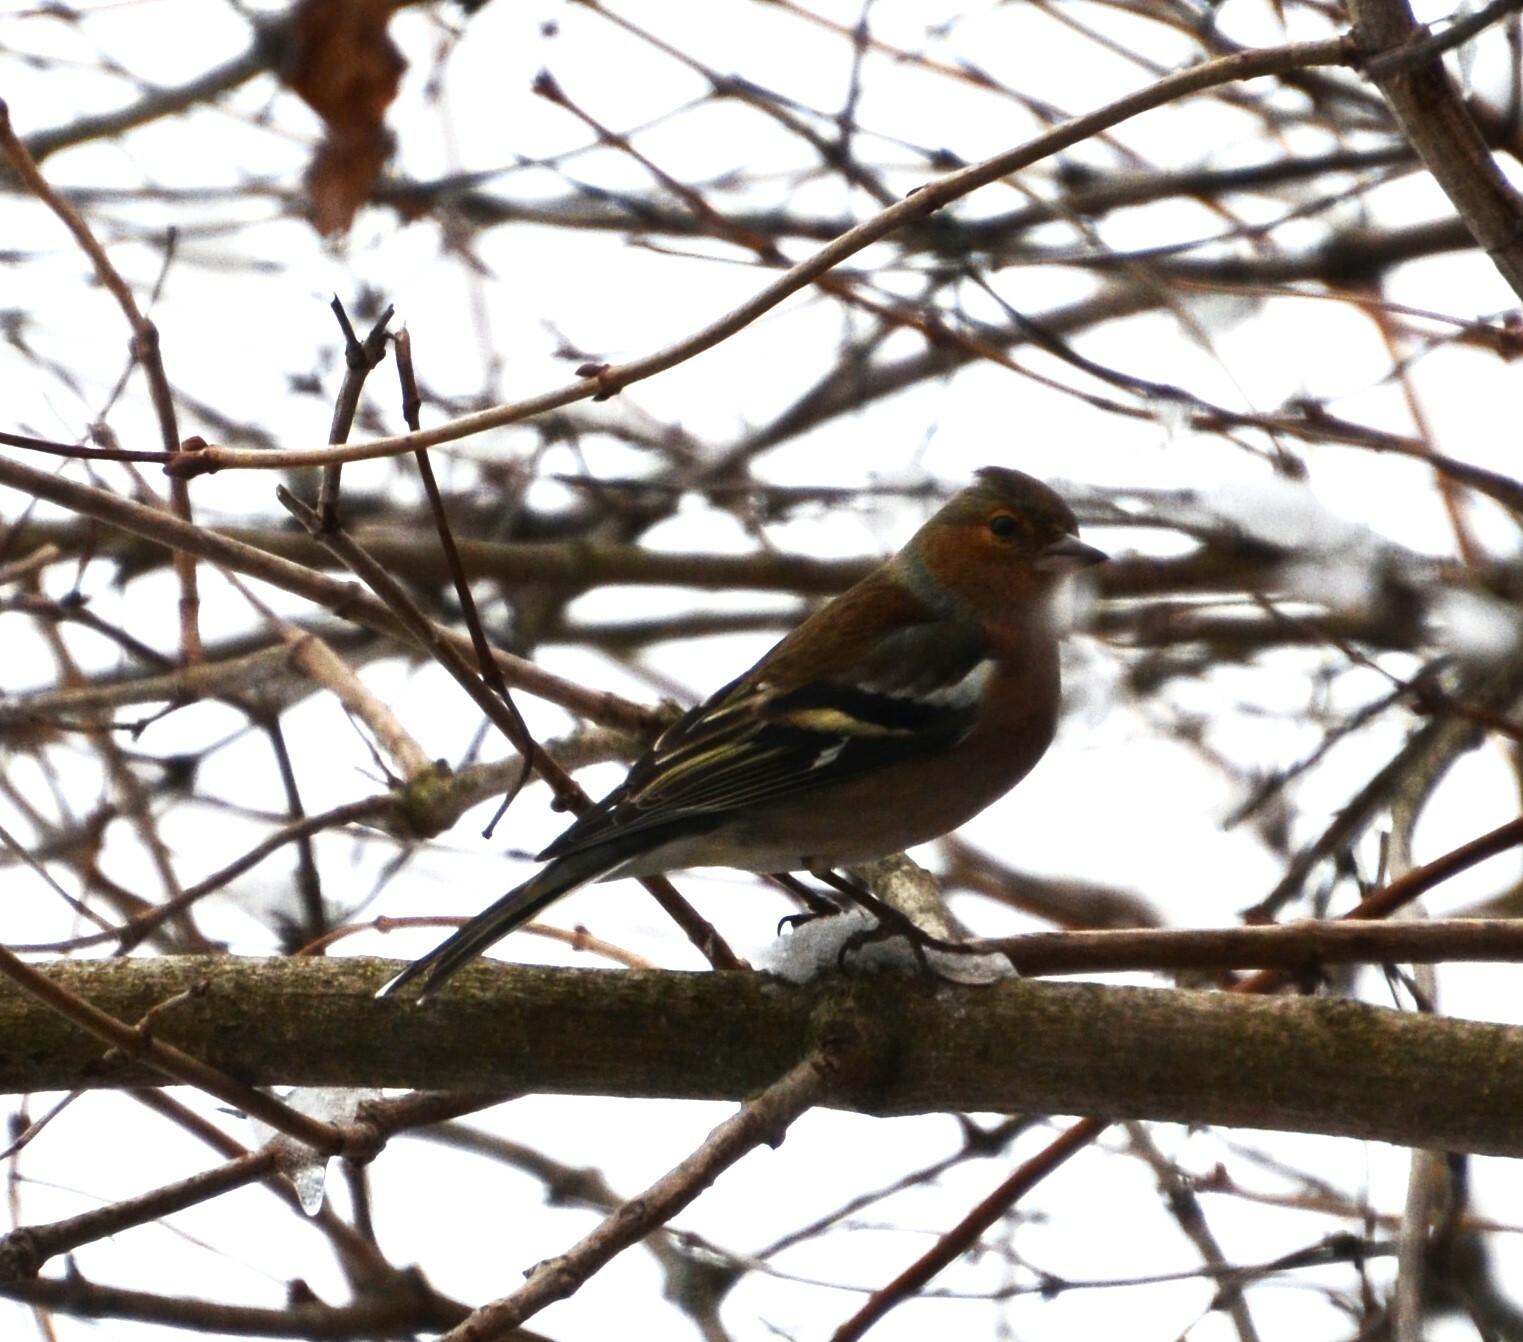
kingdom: Animalia
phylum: Chordata
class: Aves
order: Passeriformes
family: Fringillidae
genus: Fringilla
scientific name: Fringilla coelebs
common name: Common chaffinch
